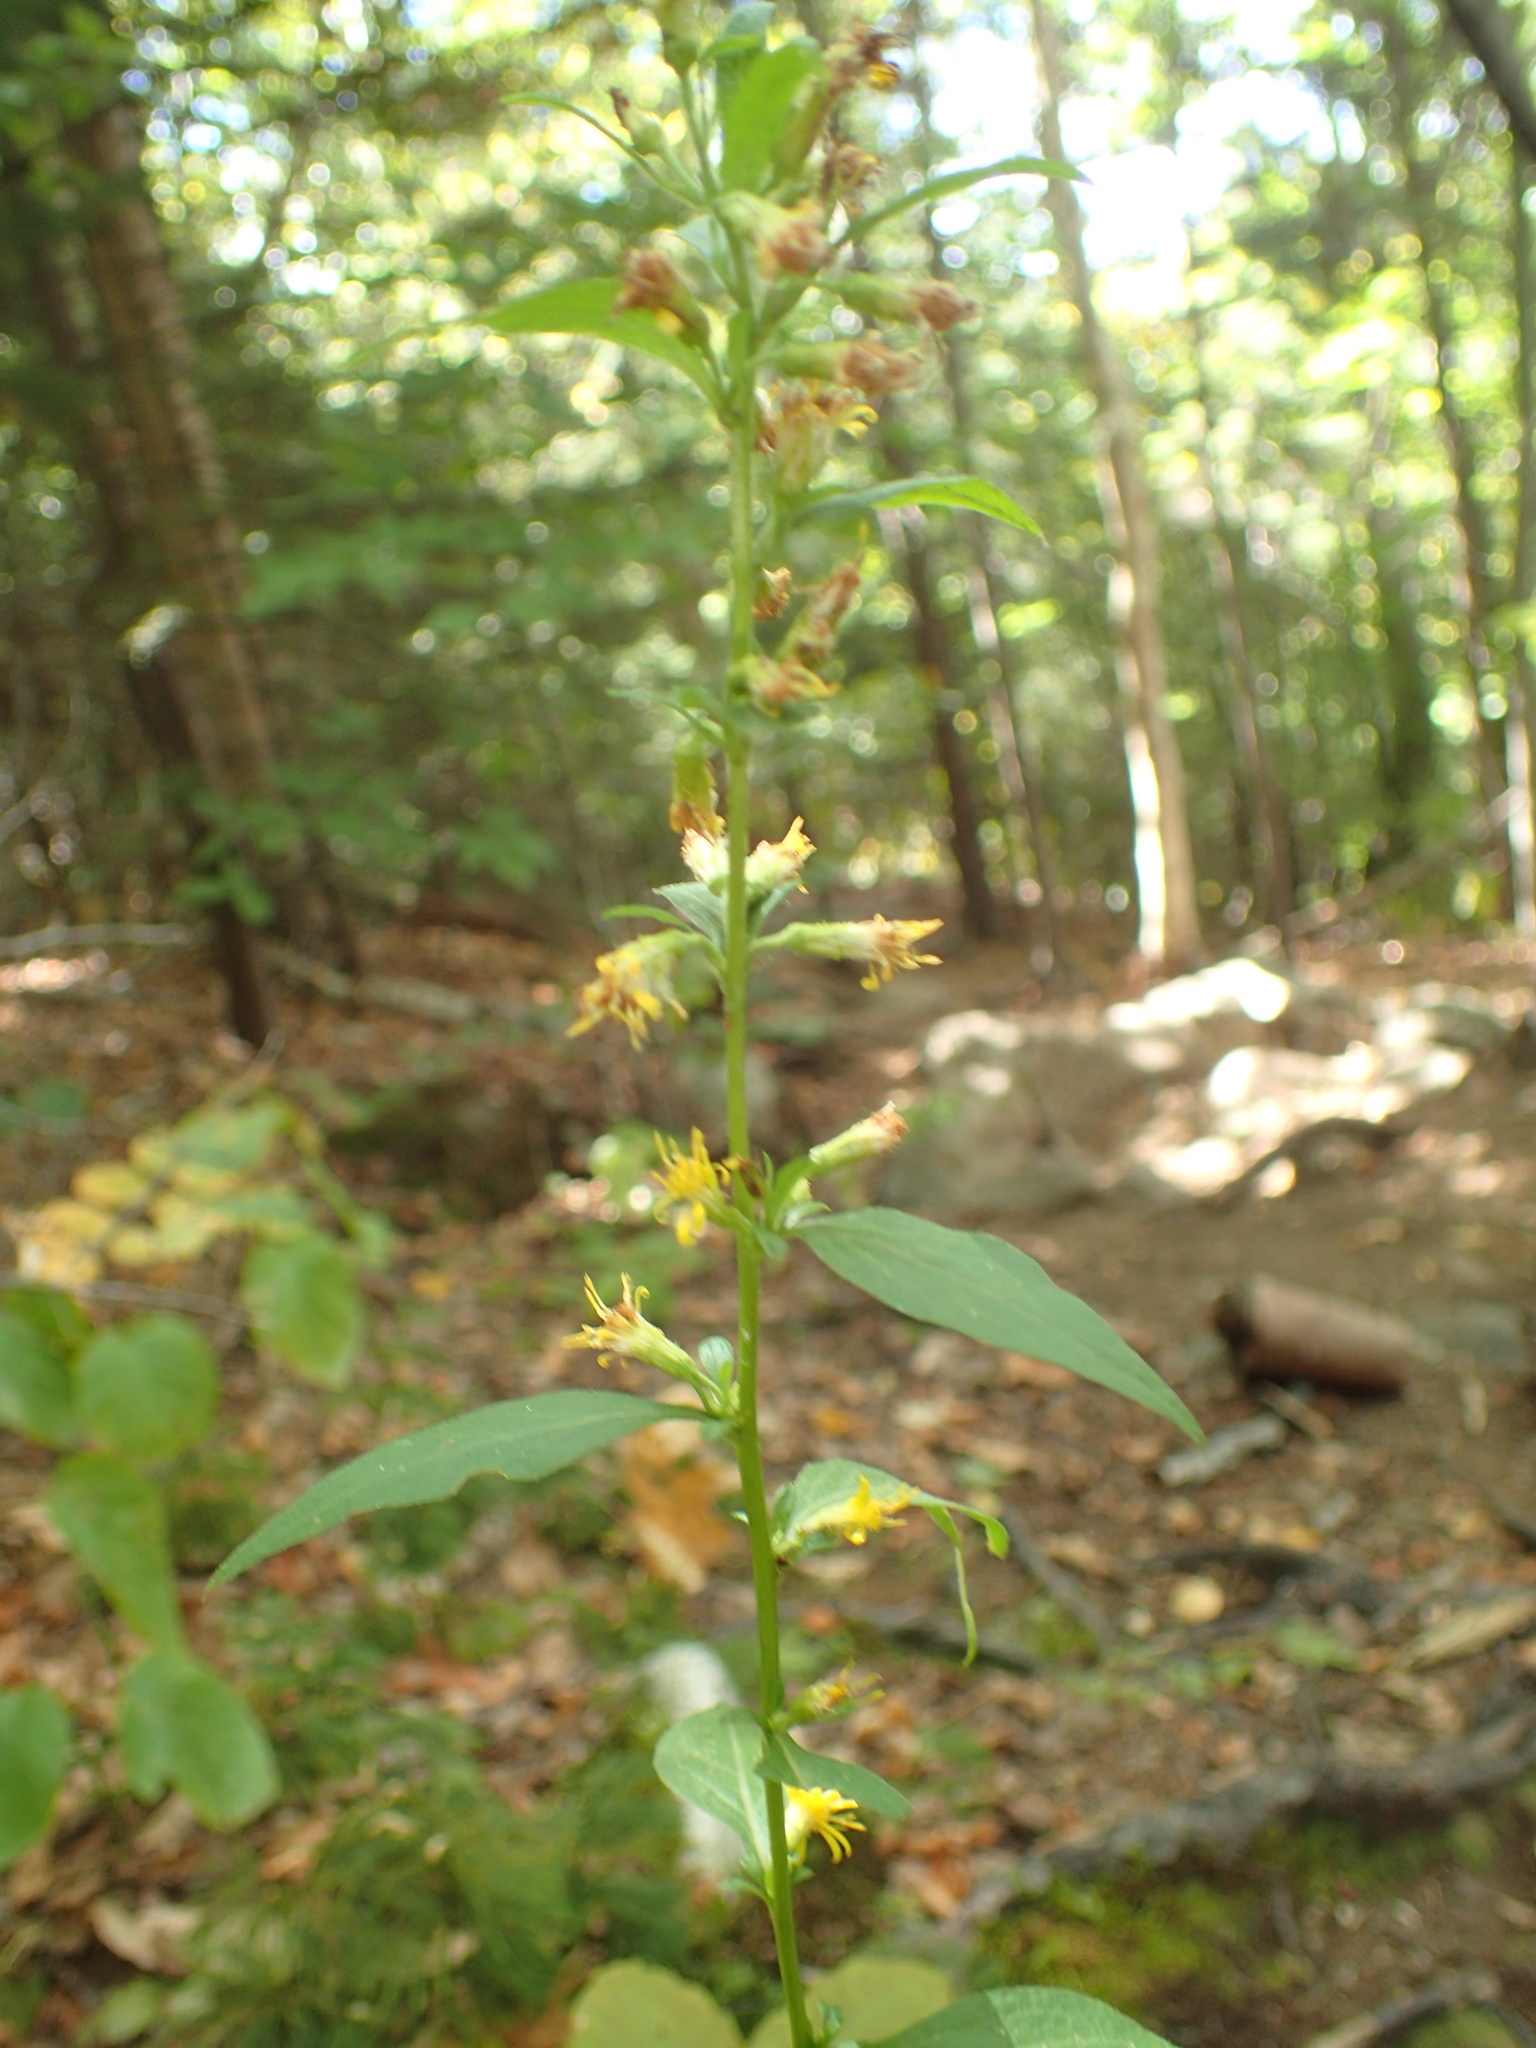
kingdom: Plantae
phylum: Tracheophyta
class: Magnoliopsida
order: Asterales
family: Asteraceae
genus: Solidago
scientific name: Solidago macrophylla
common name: Large-leaved goldenrod
